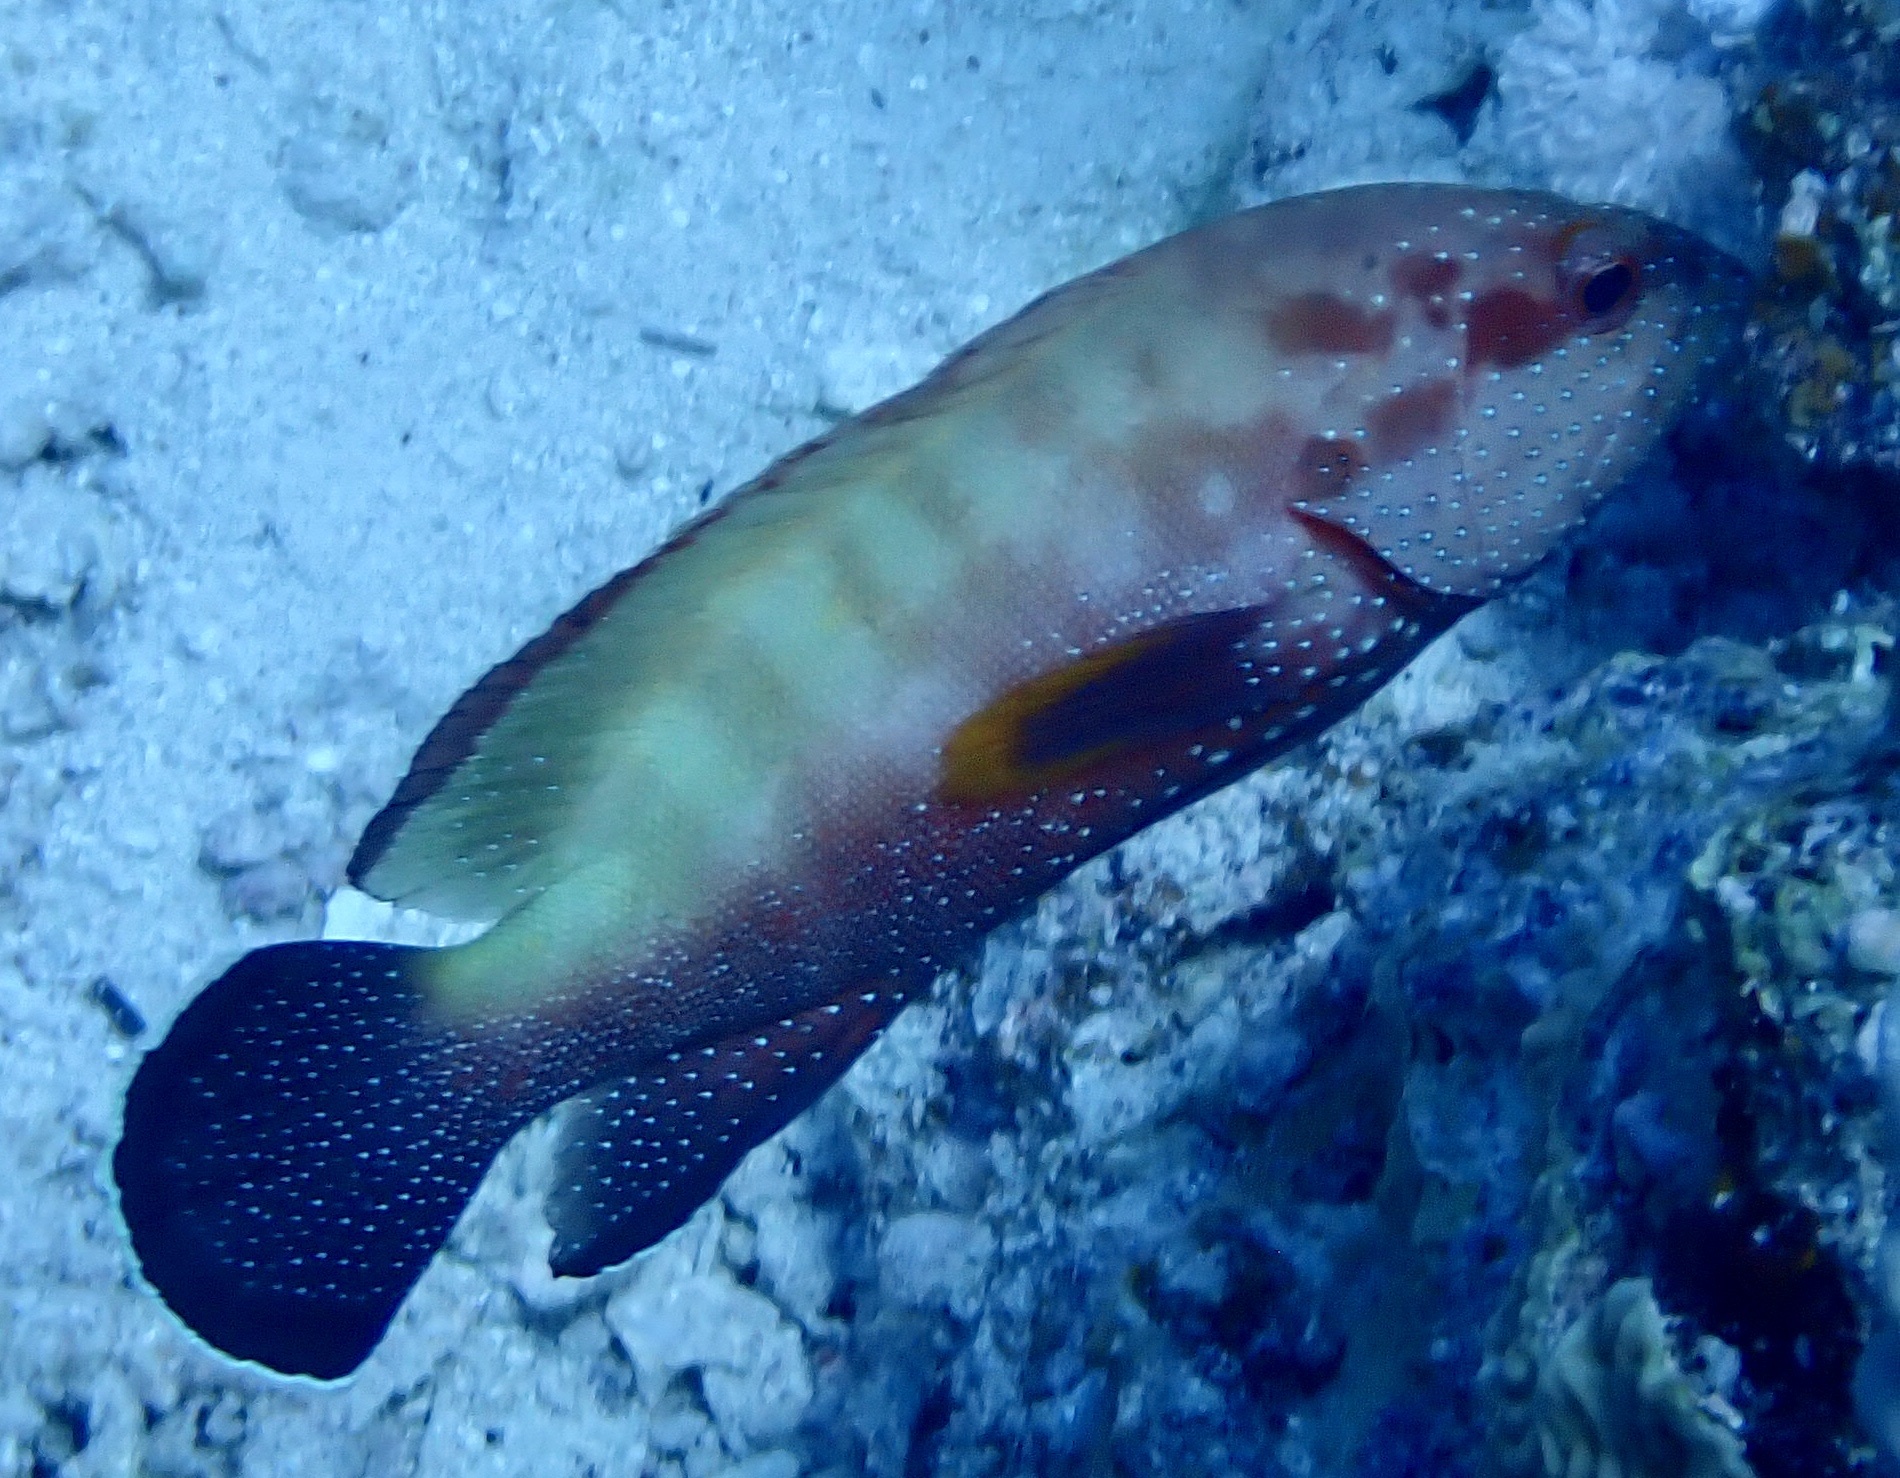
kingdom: Animalia
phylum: Chordata
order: Perciformes
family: Serranidae
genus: Cephalopholis
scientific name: Cephalopholis hemistiktos
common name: Halfspotted hind
